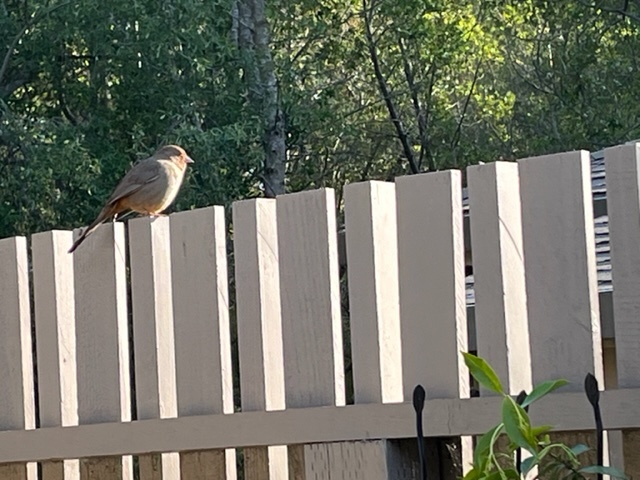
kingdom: Animalia
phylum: Chordata
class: Aves
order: Passeriformes
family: Passerellidae
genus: Melozone
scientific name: Melozone crissalis
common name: California towhee
